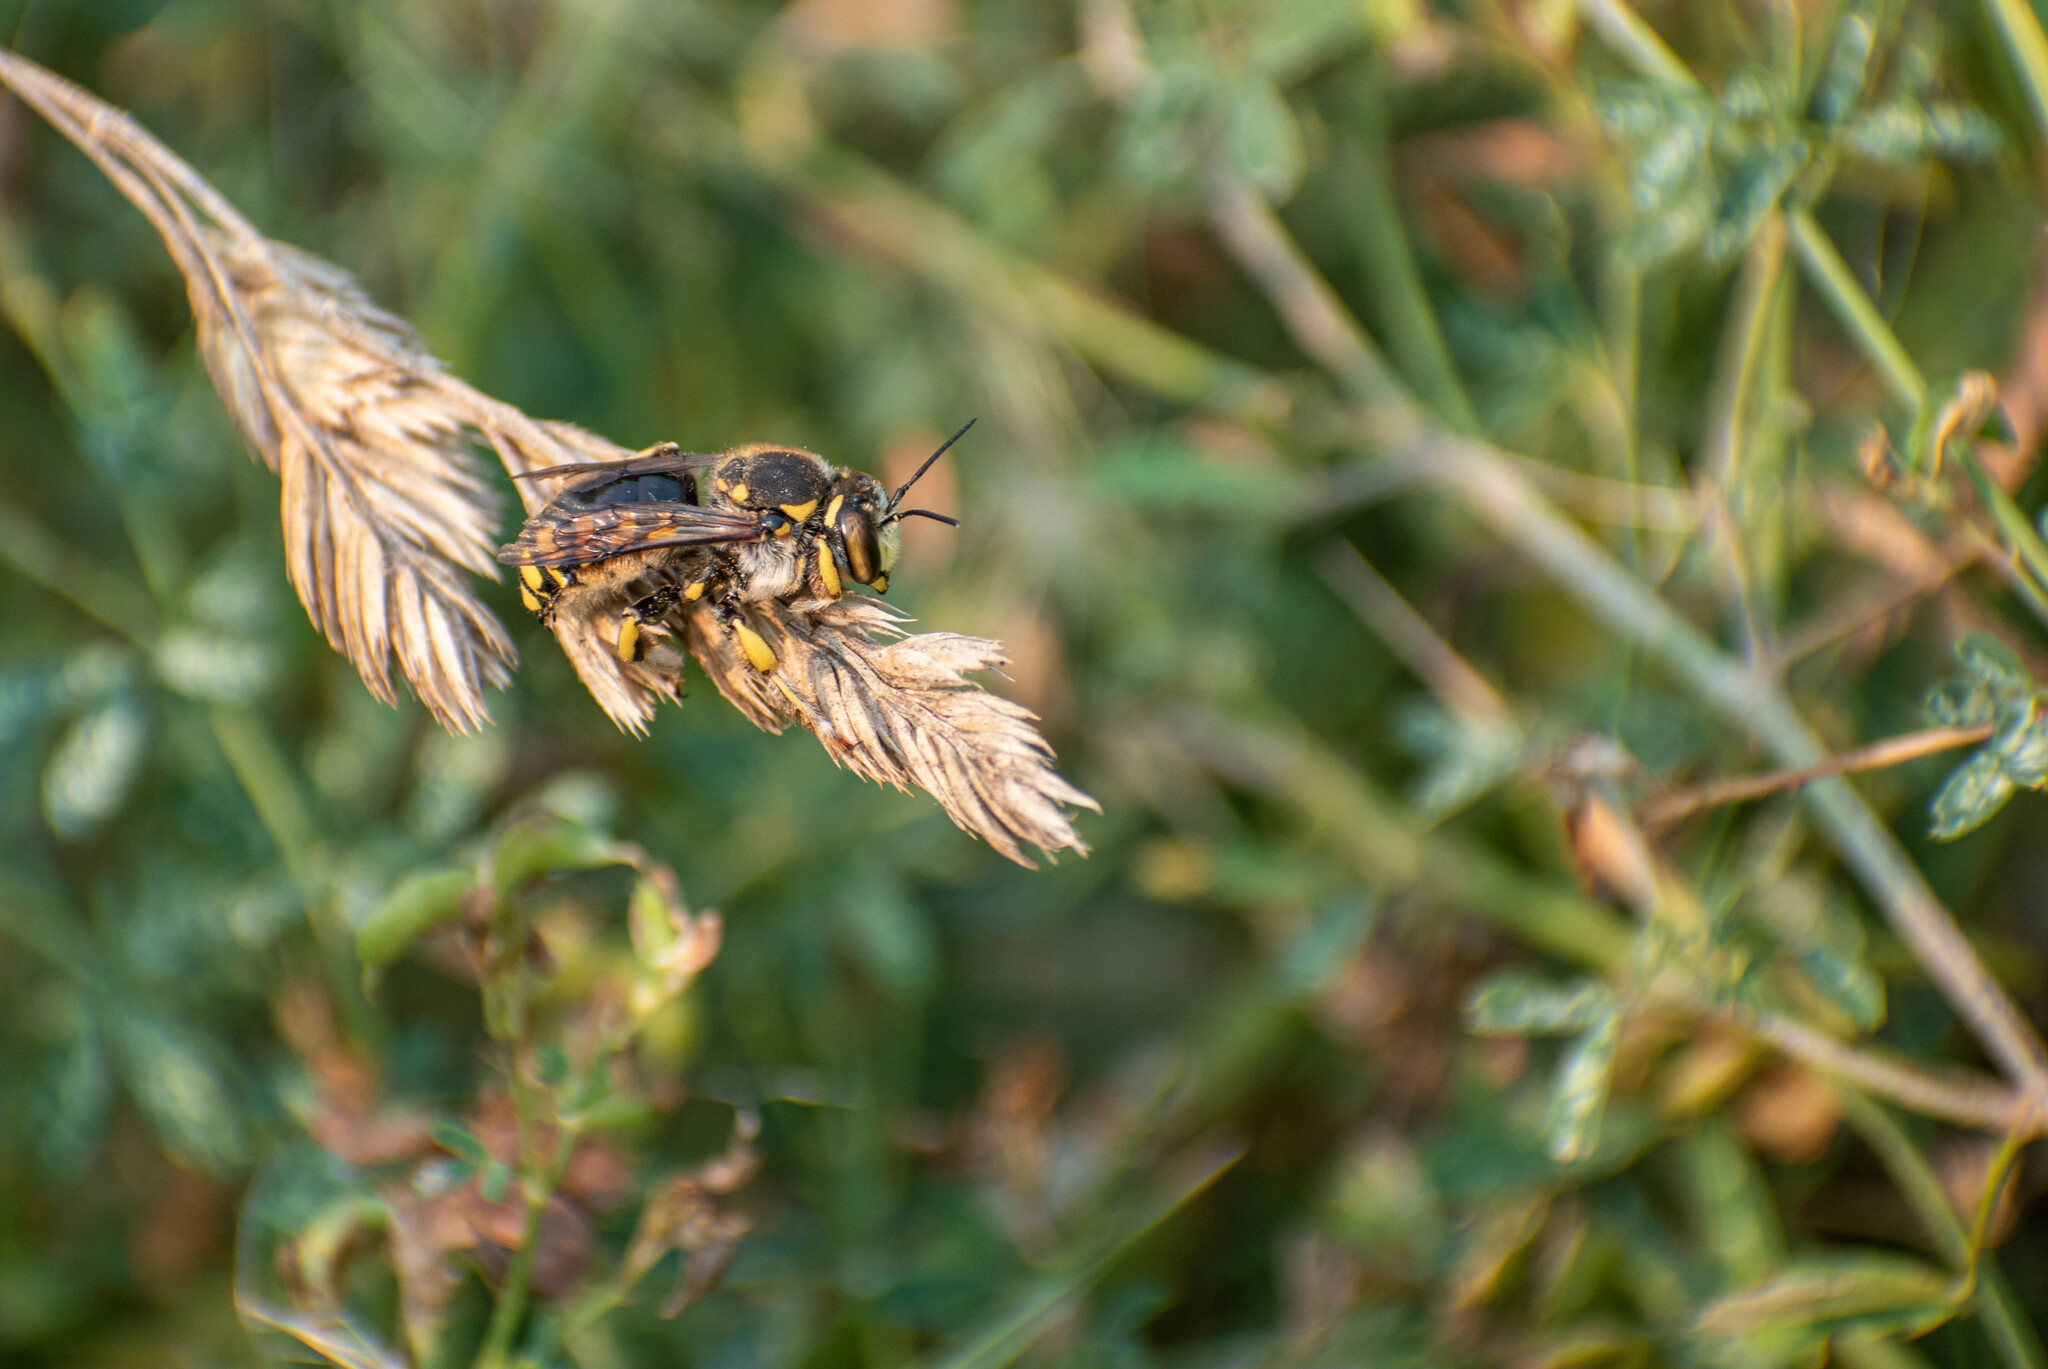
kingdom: Animalia
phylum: Arthropoda
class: Insecta
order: Hymenoptera
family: Megachilidae
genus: Anthidium
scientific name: Anthidium florentinum
